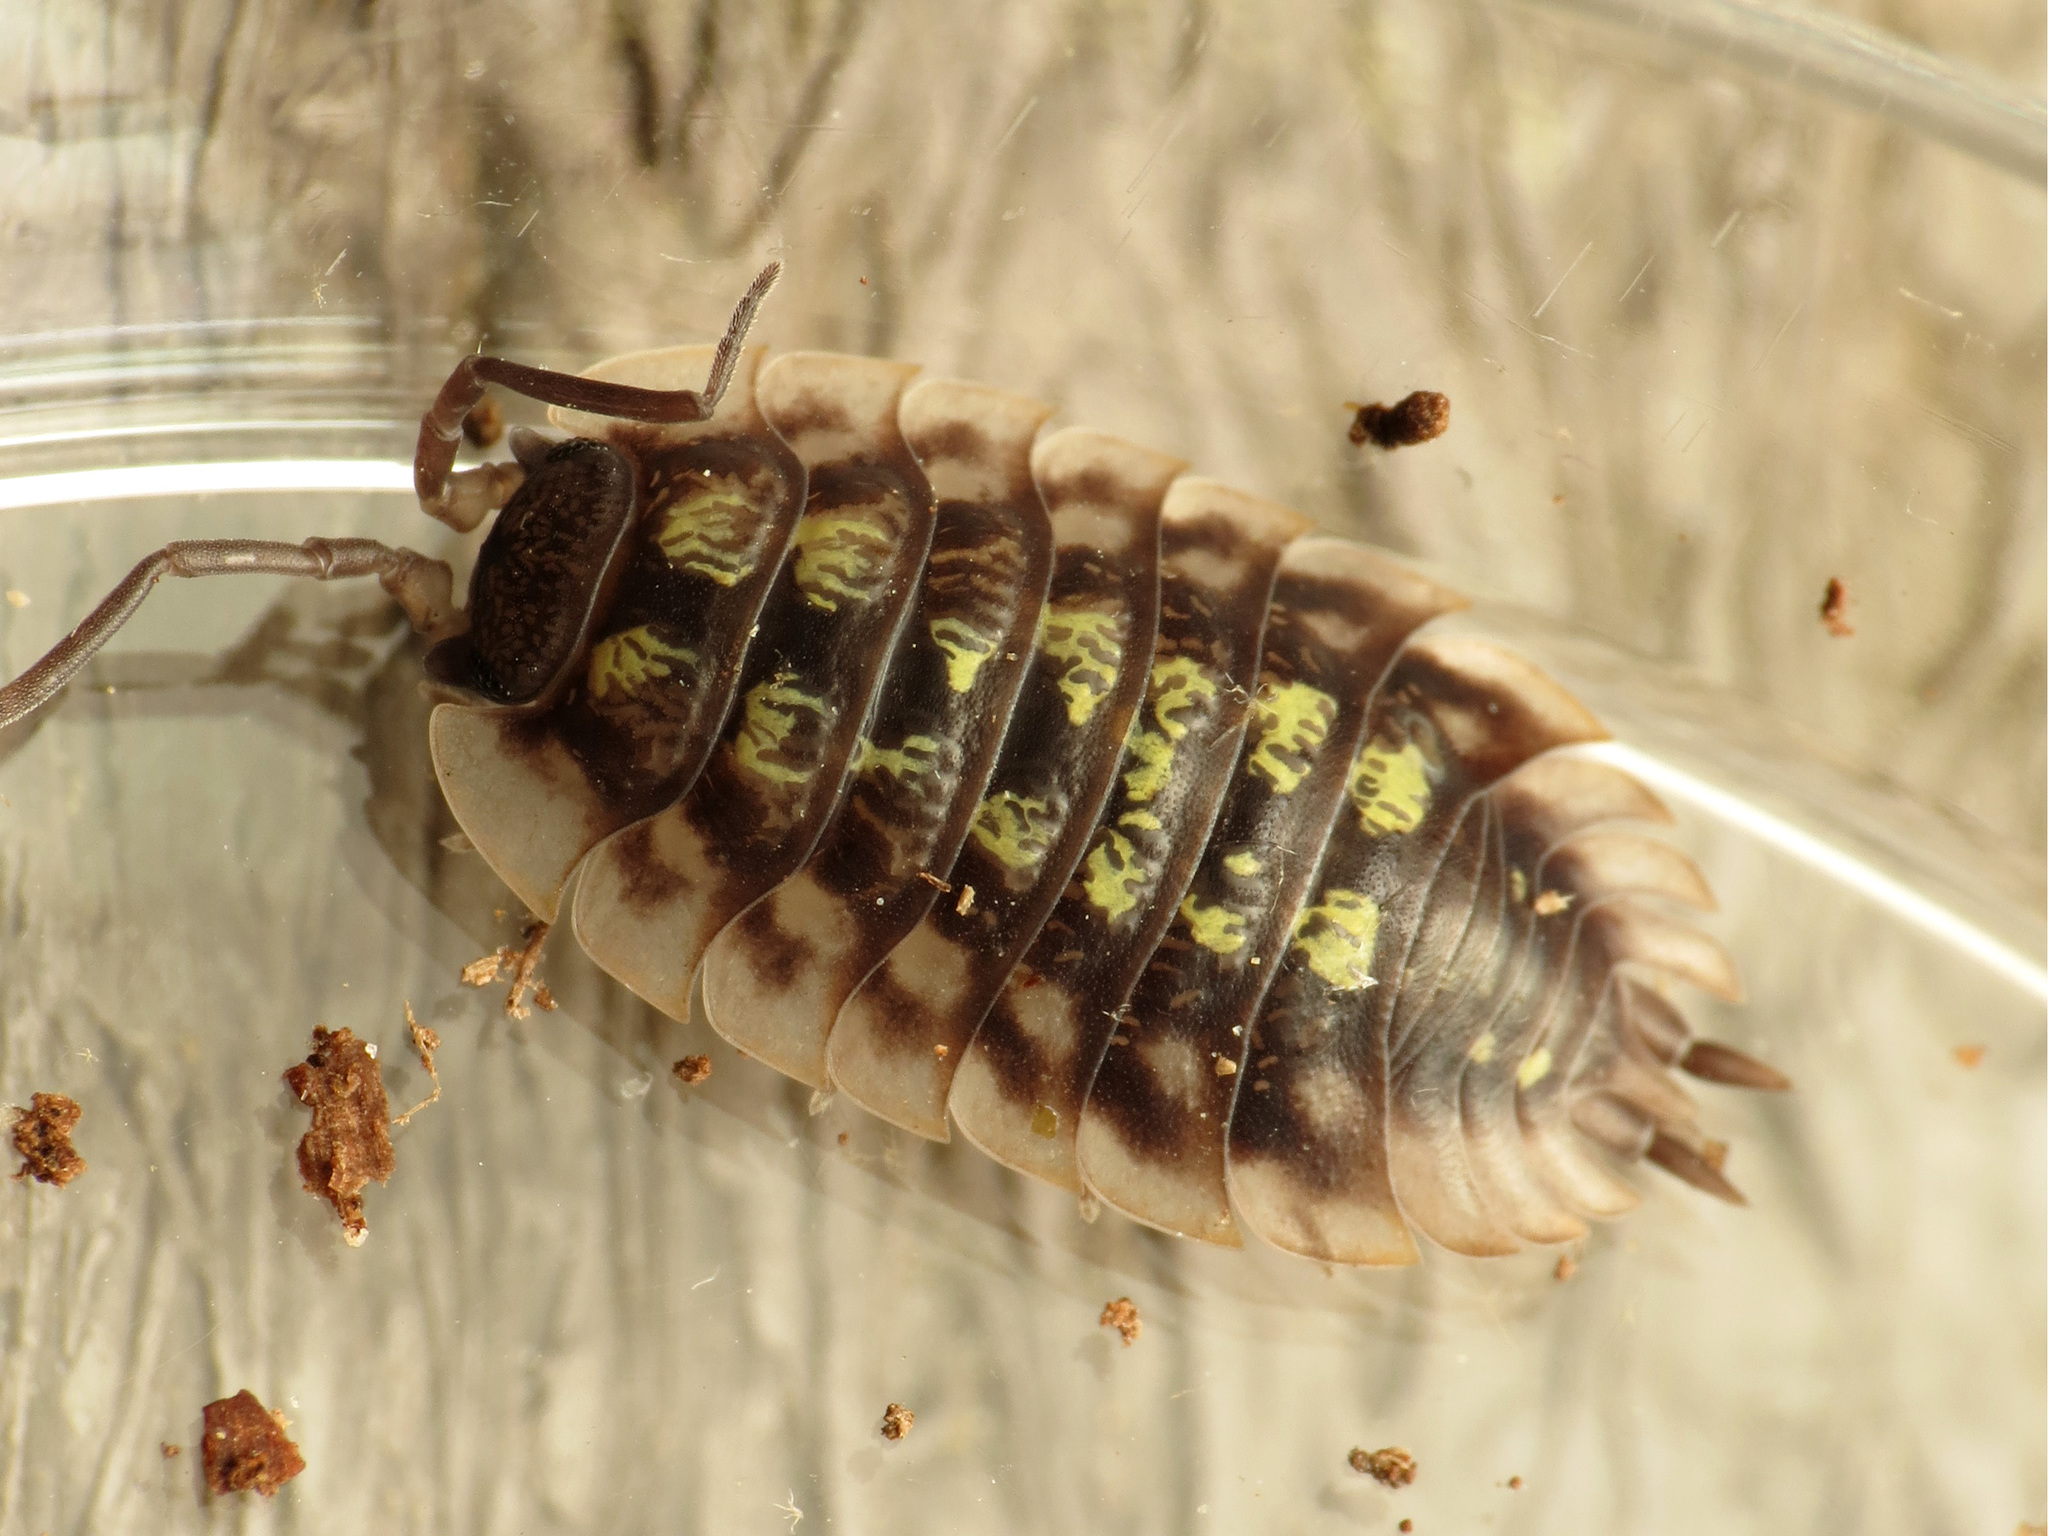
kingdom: Animalia
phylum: Arthropoda
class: Malacostraca
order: Isopoda
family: Oniscidae
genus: Oniscus
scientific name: Oniscus asellus
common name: Common shiny woodlouse
